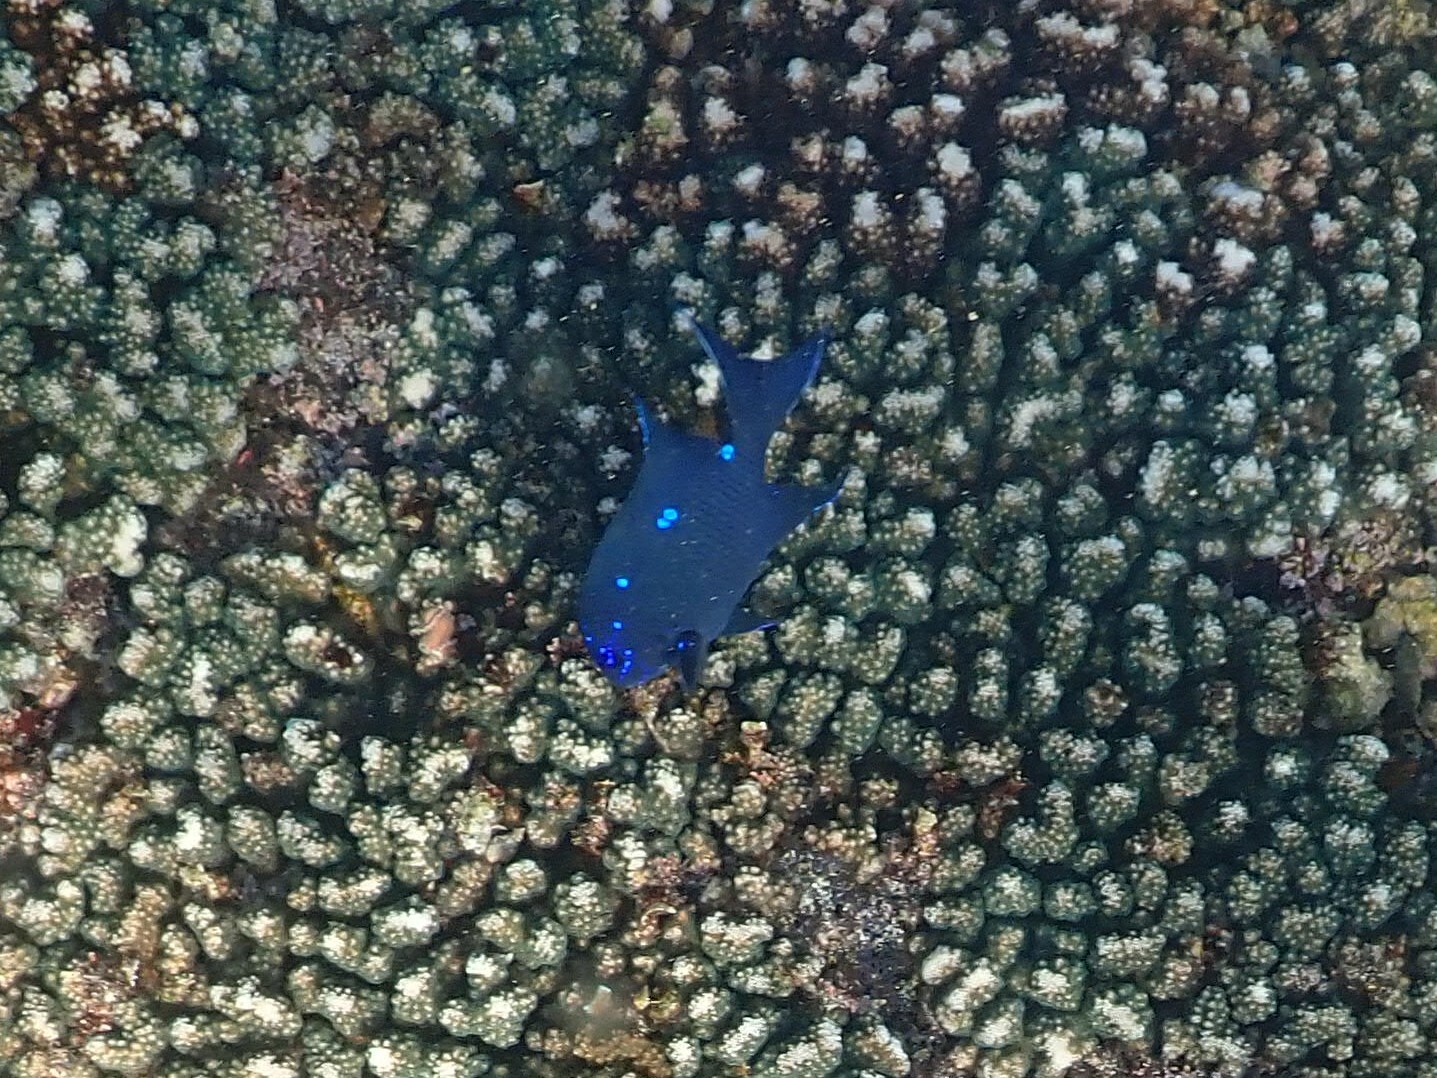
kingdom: Animalia
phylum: Chordata
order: Perciformes
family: Pomacentridae
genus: Microspathodon
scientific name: Microspathodon dorsalis
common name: Giant damselfish
